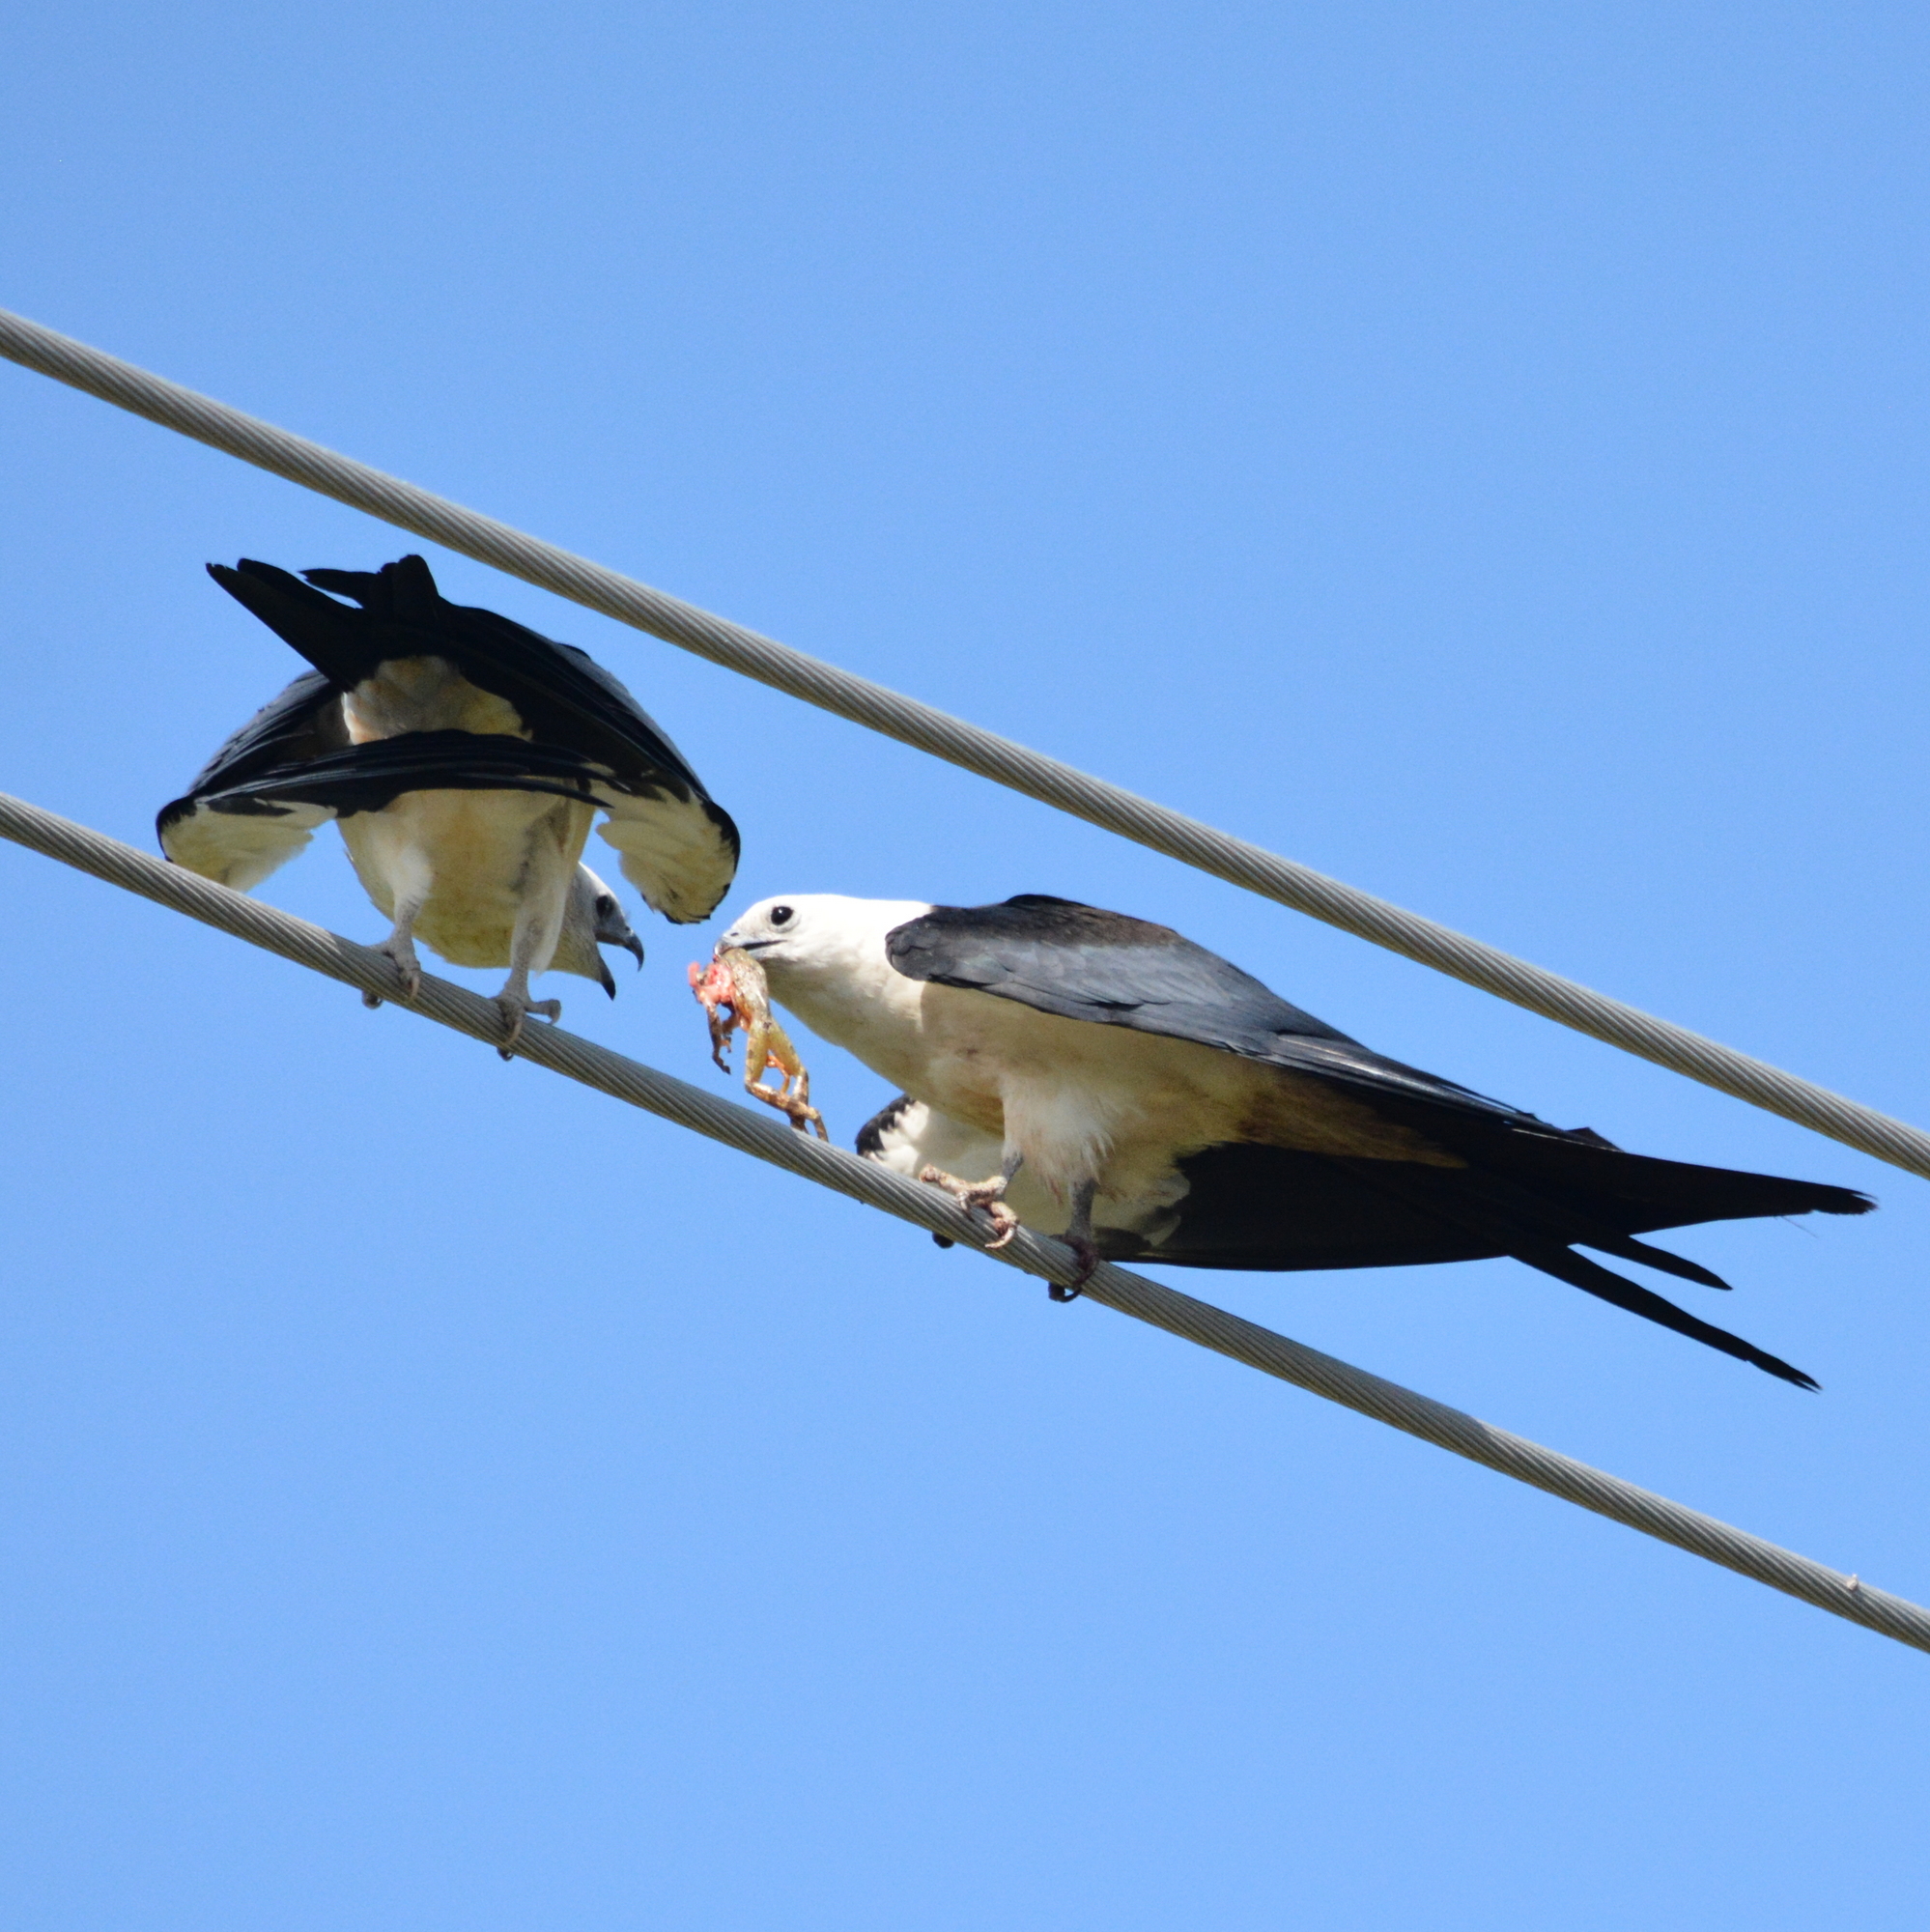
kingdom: Animalia
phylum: Chordata
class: Aves
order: Accipitriformes
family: Accipitridae
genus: Elanoides
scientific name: Elanoides forficatus
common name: Swallow-tailed kite
